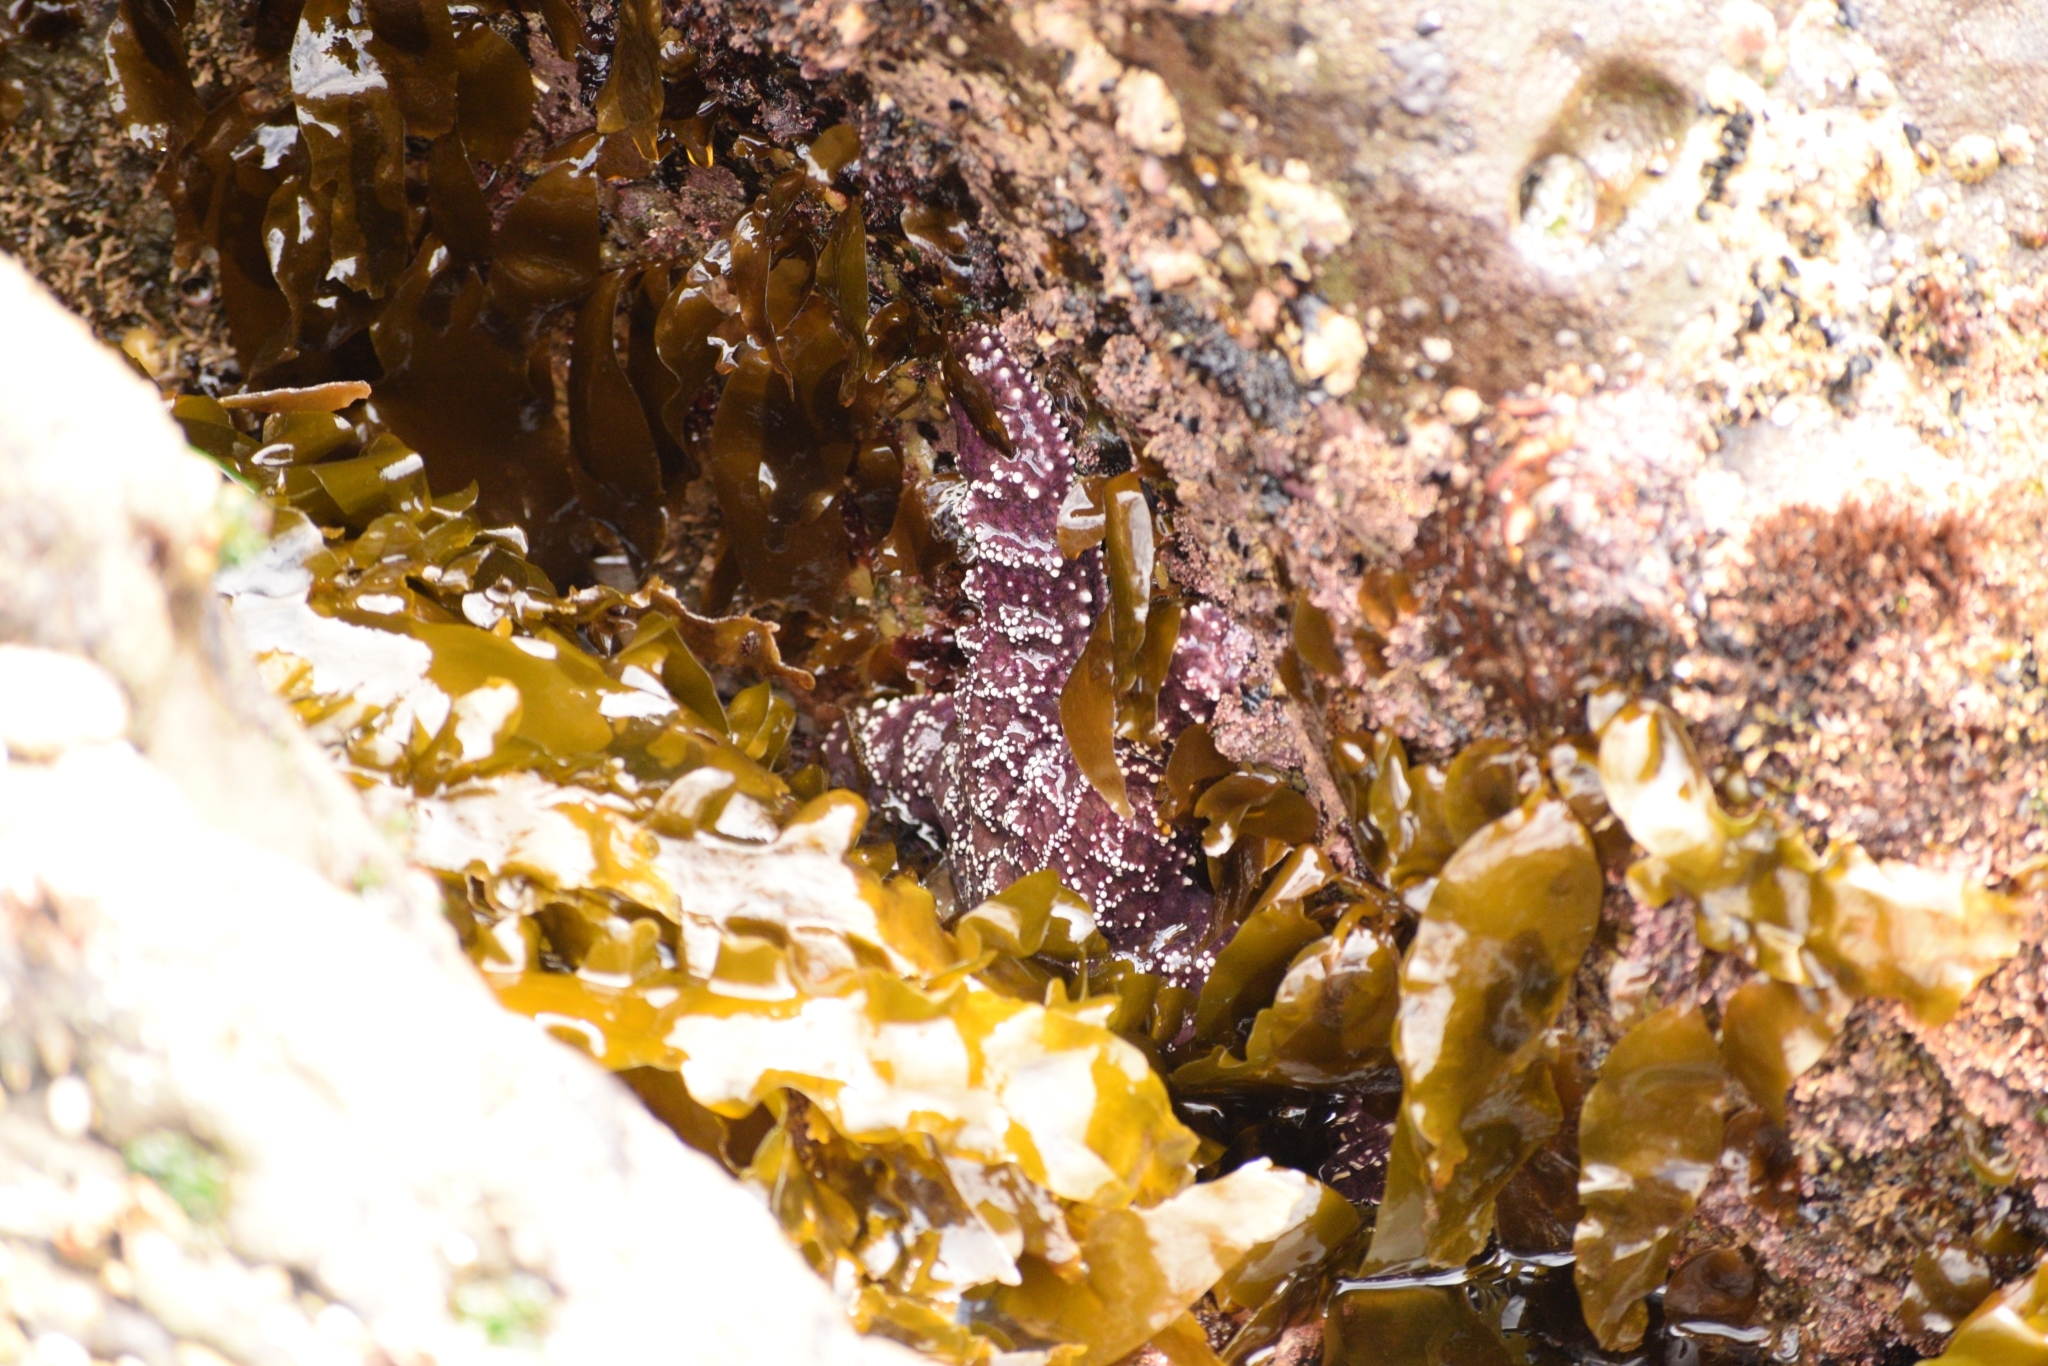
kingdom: Animalia
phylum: Echinodermata
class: Asteroidea
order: Forcipulatida
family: Asteriidae
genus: Pisaster
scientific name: Pisaster ochraceus
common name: Ochre stars
